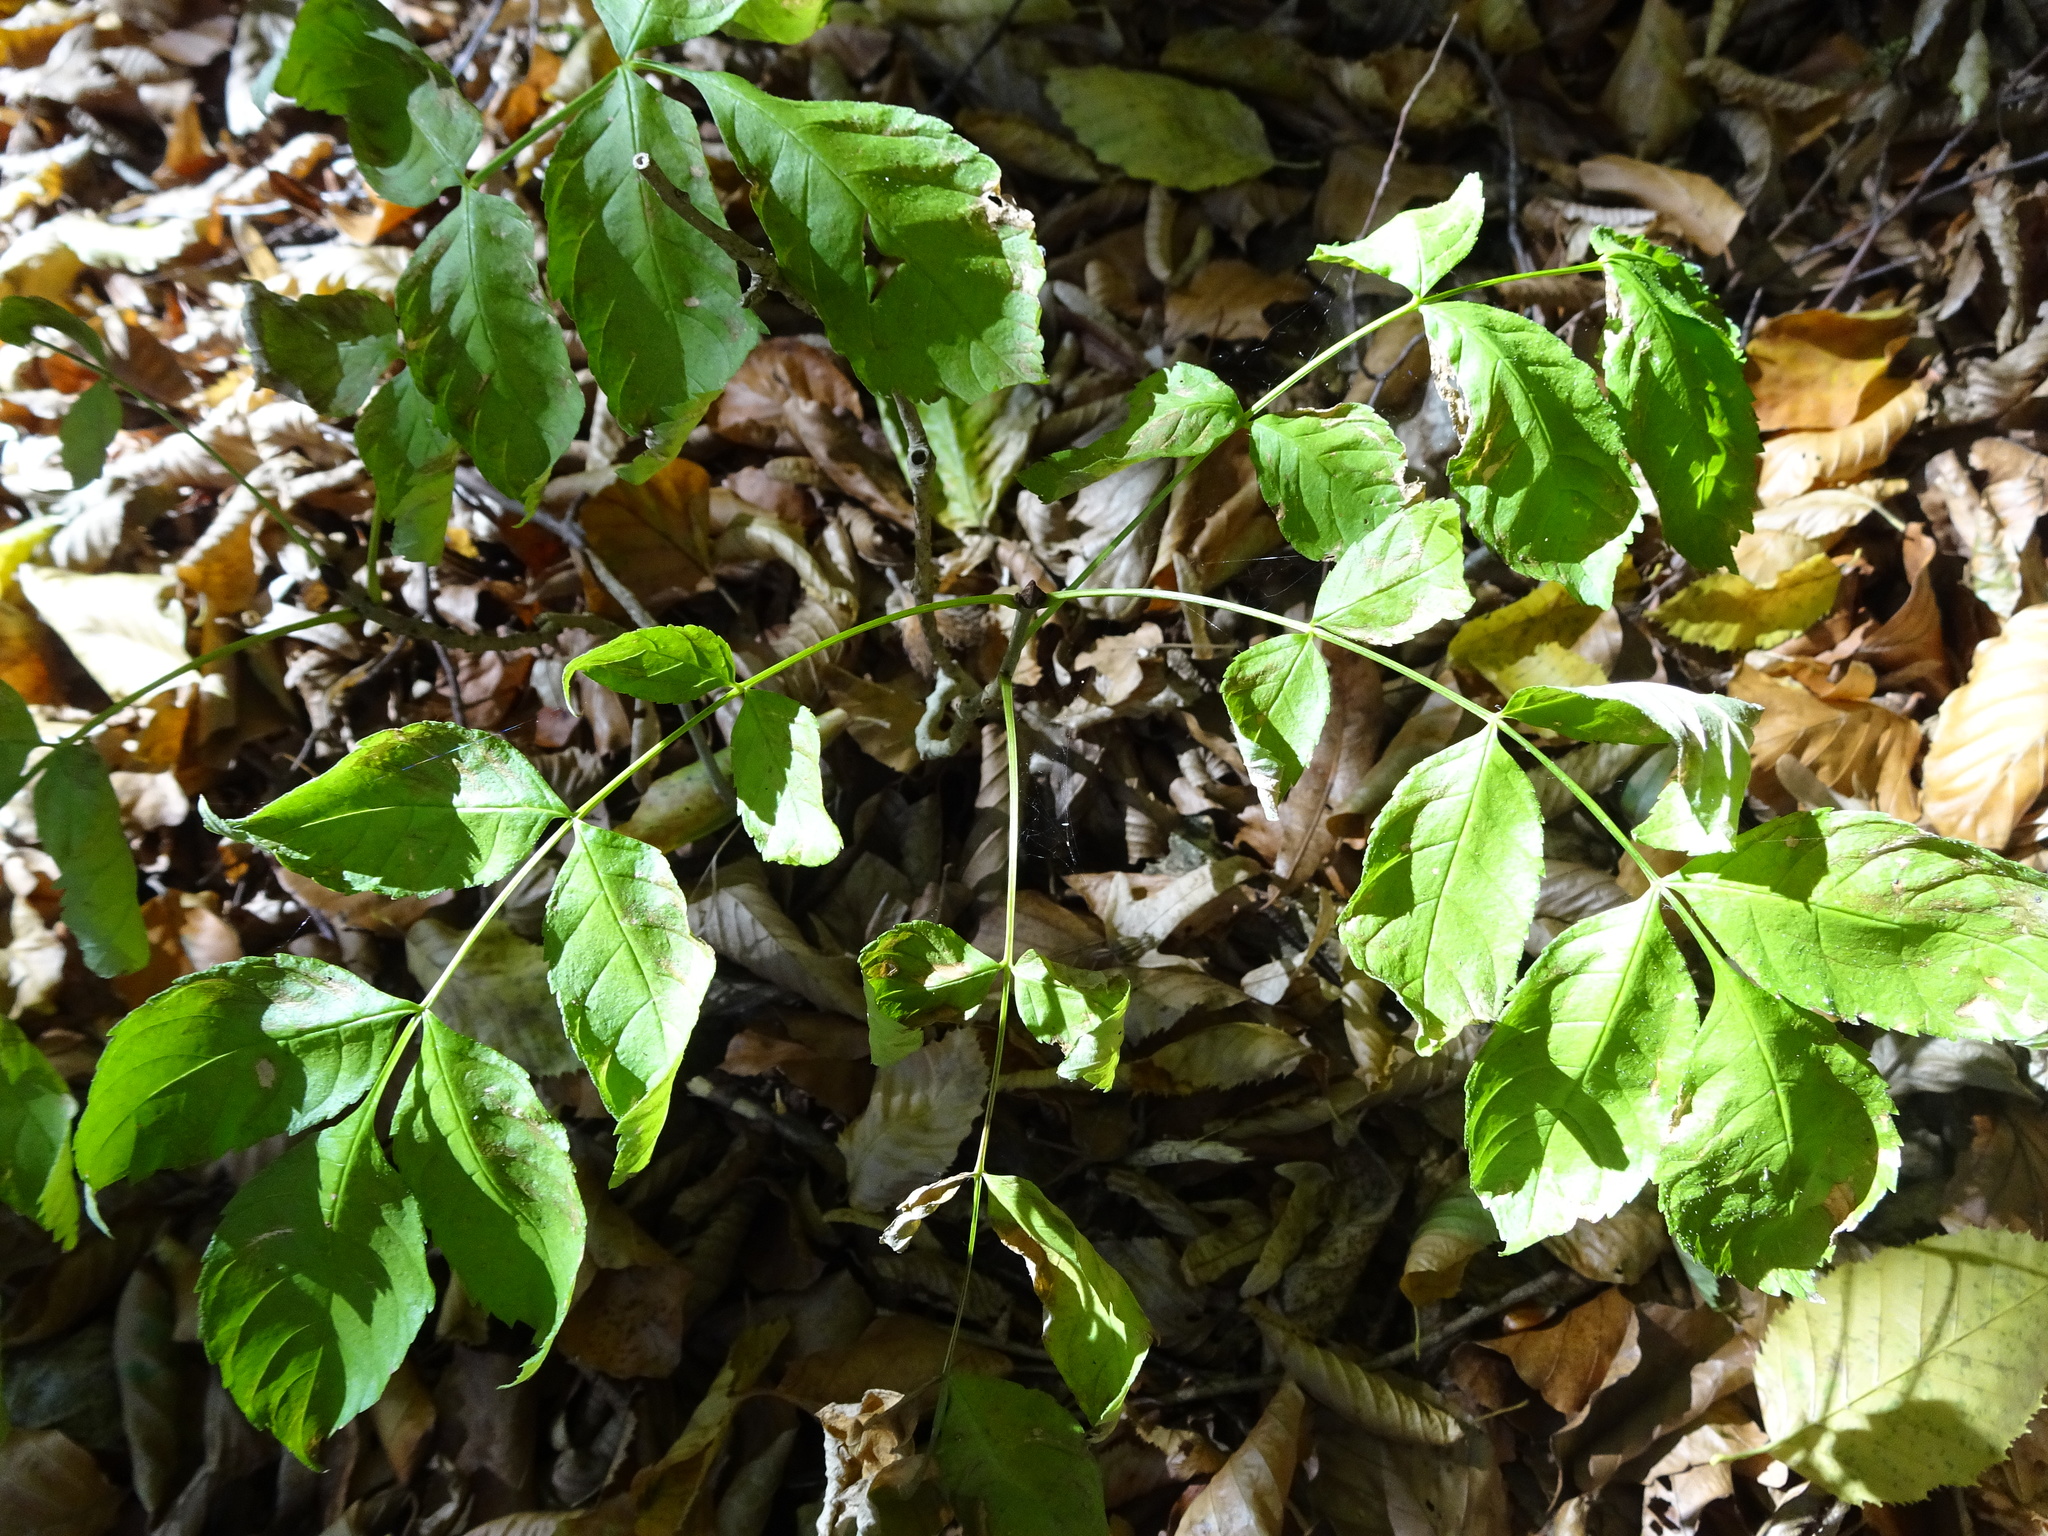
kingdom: Plantae
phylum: Tracheophyta
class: Magnoliopsida
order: Lamiales
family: Oleaceae
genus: Fraxinus
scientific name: Fraxinus excelsior
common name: European ash
